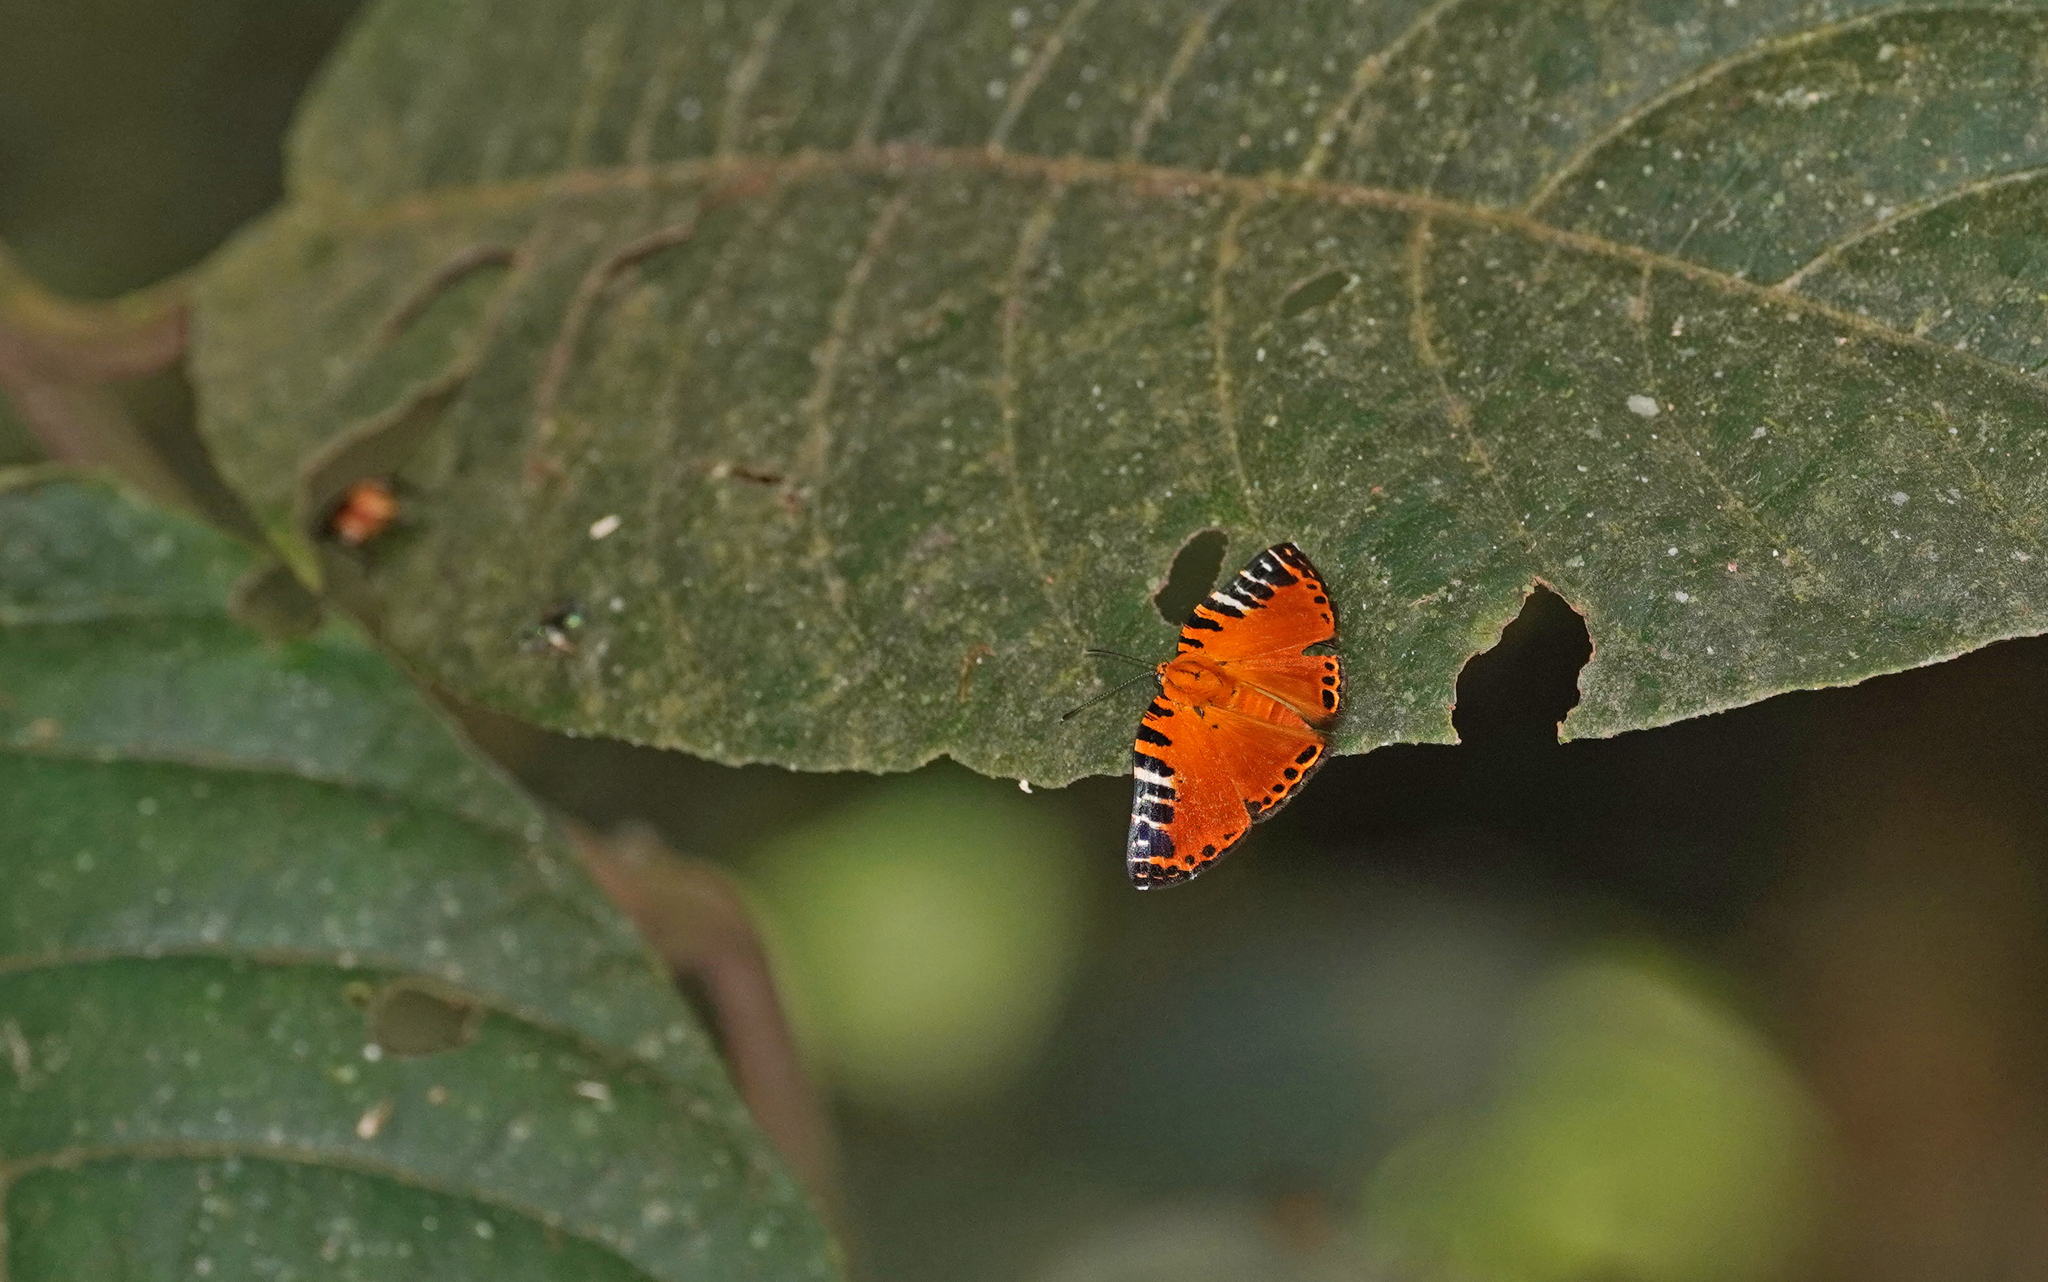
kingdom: Animalia
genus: Symmachia
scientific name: Symmachia virgatula
